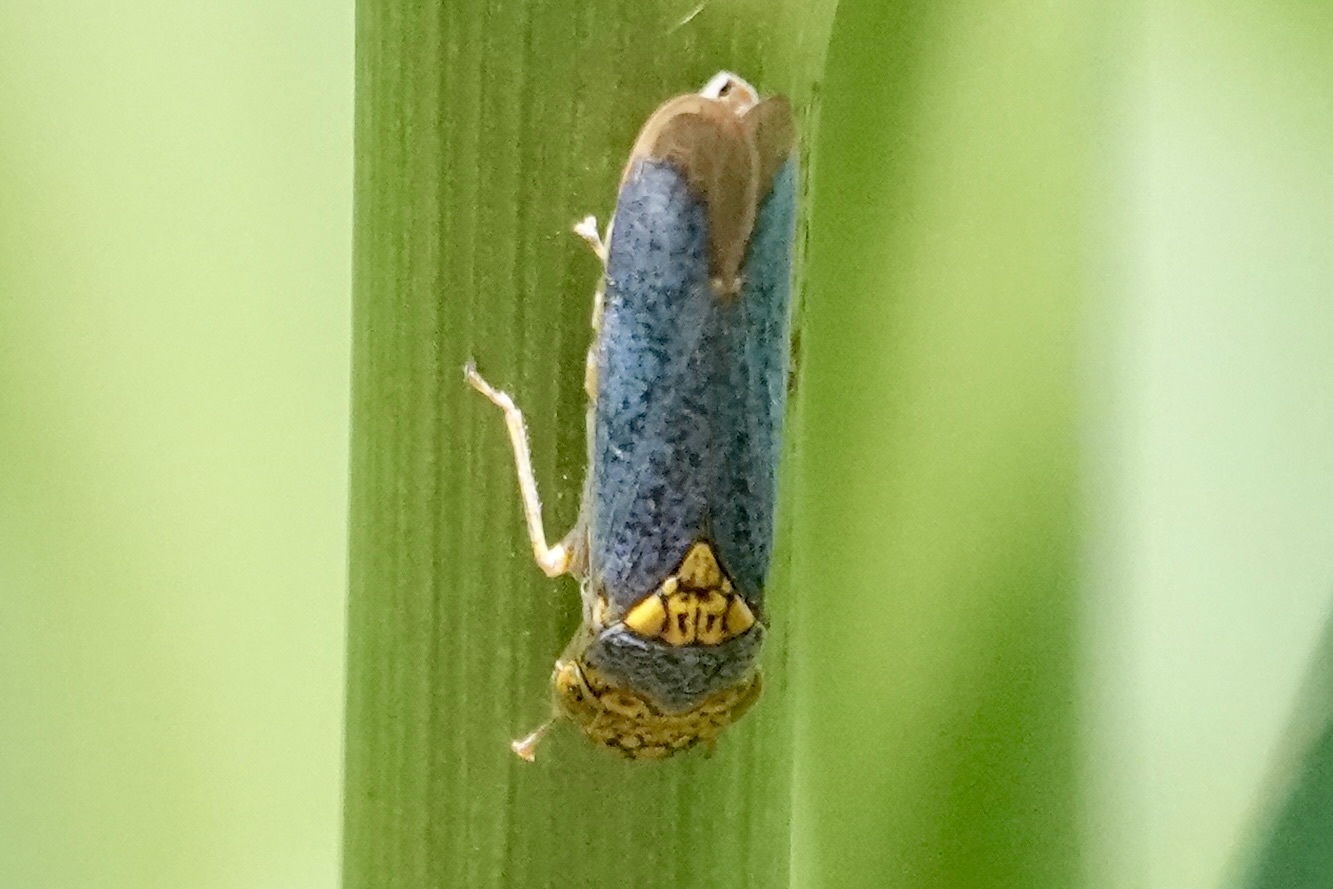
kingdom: Animalia
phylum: Arthropoda
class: Insecta
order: Hemiptera
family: Cicadellidae
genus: Oncometopia
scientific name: Oncometopia orbona
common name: Broad-headed sharpshooter
